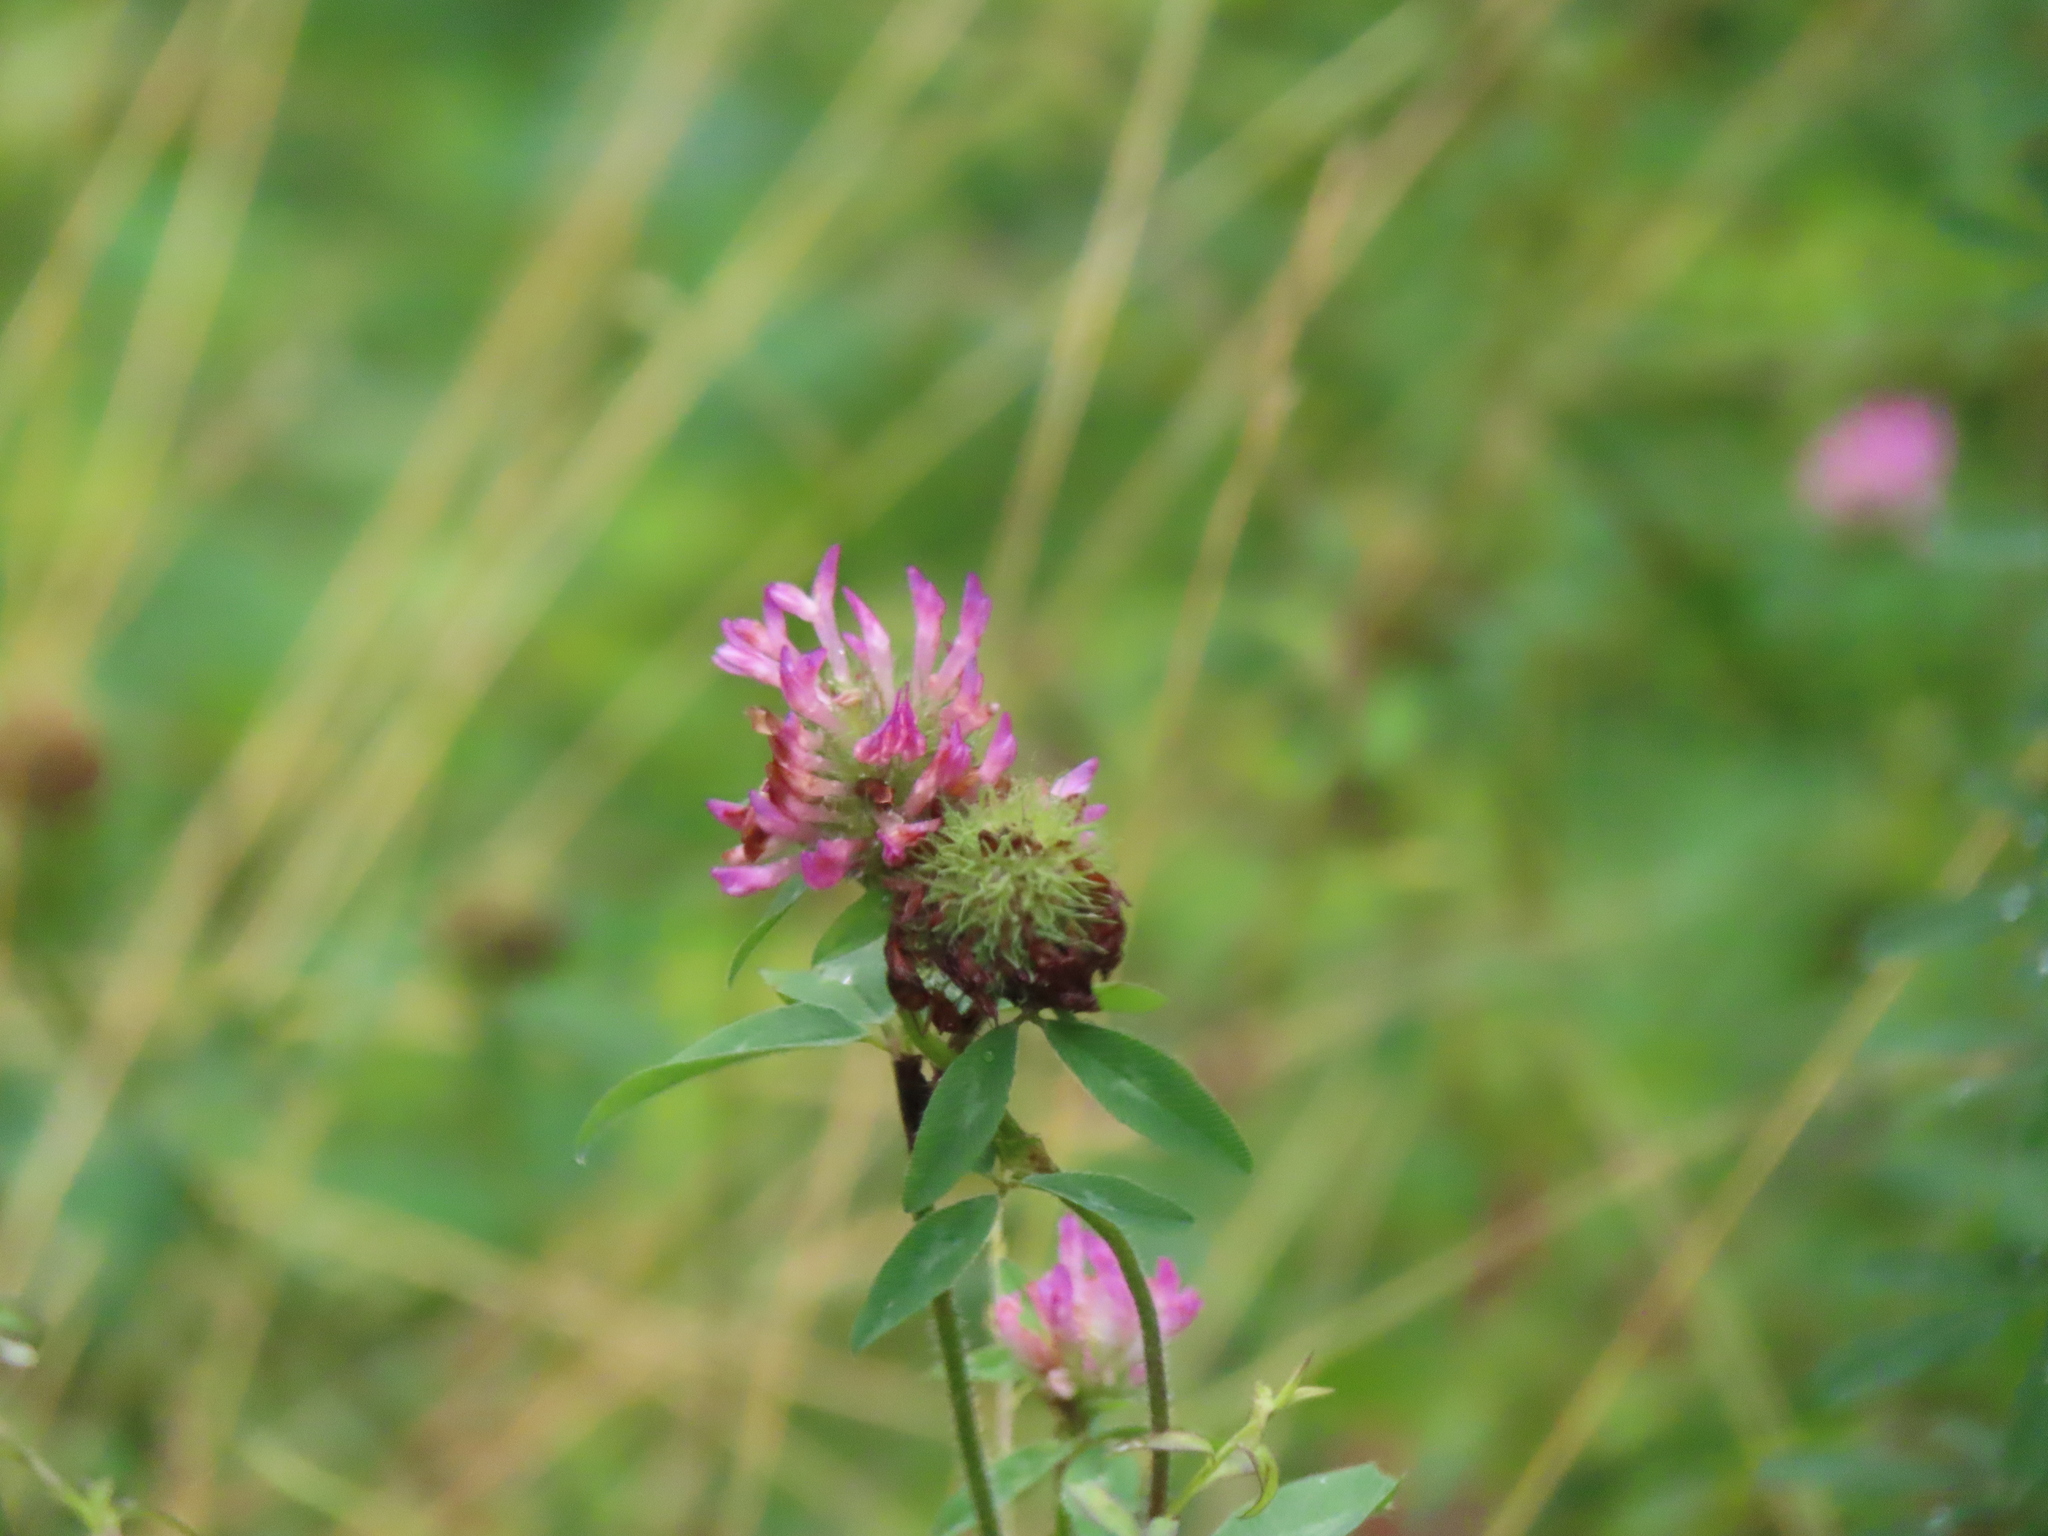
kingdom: Plantae
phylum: Tracheophyta
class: Magnoliopsida
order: Fabales
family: Fabaceae
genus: Trifolium
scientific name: Trifolium pratense
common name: Red clover
